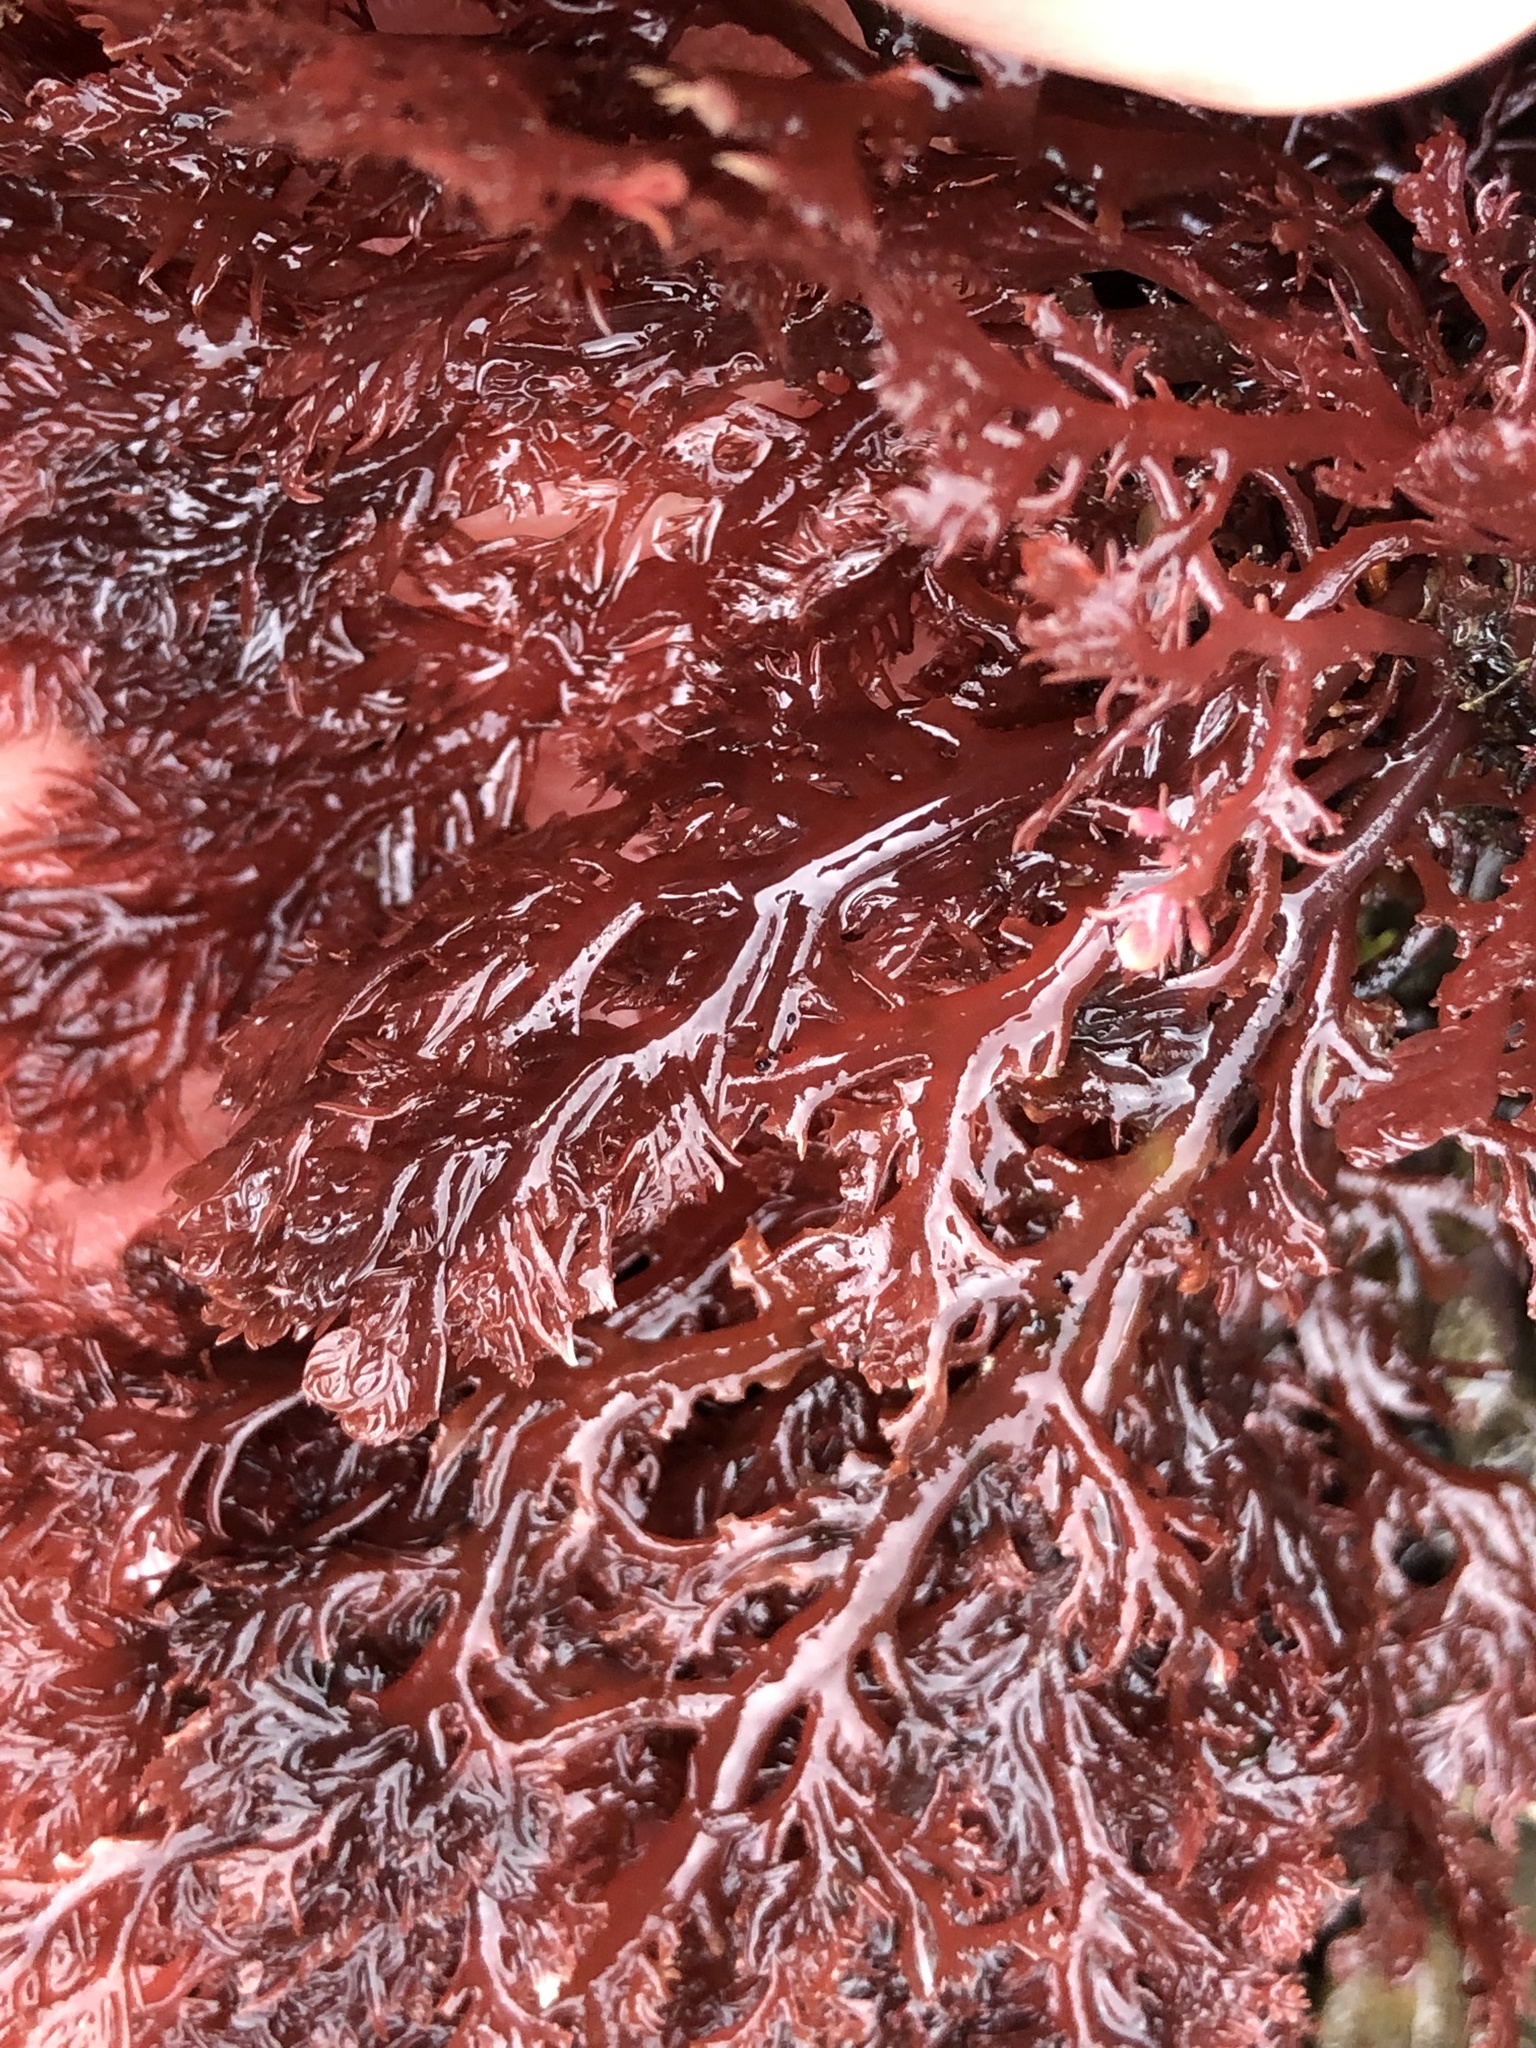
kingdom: Plantae
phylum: Rhodophyta
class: Florideophyceae
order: Plocamiales
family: Plocamiaceae
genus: Plocamium
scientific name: Plocamium cartilagineum
